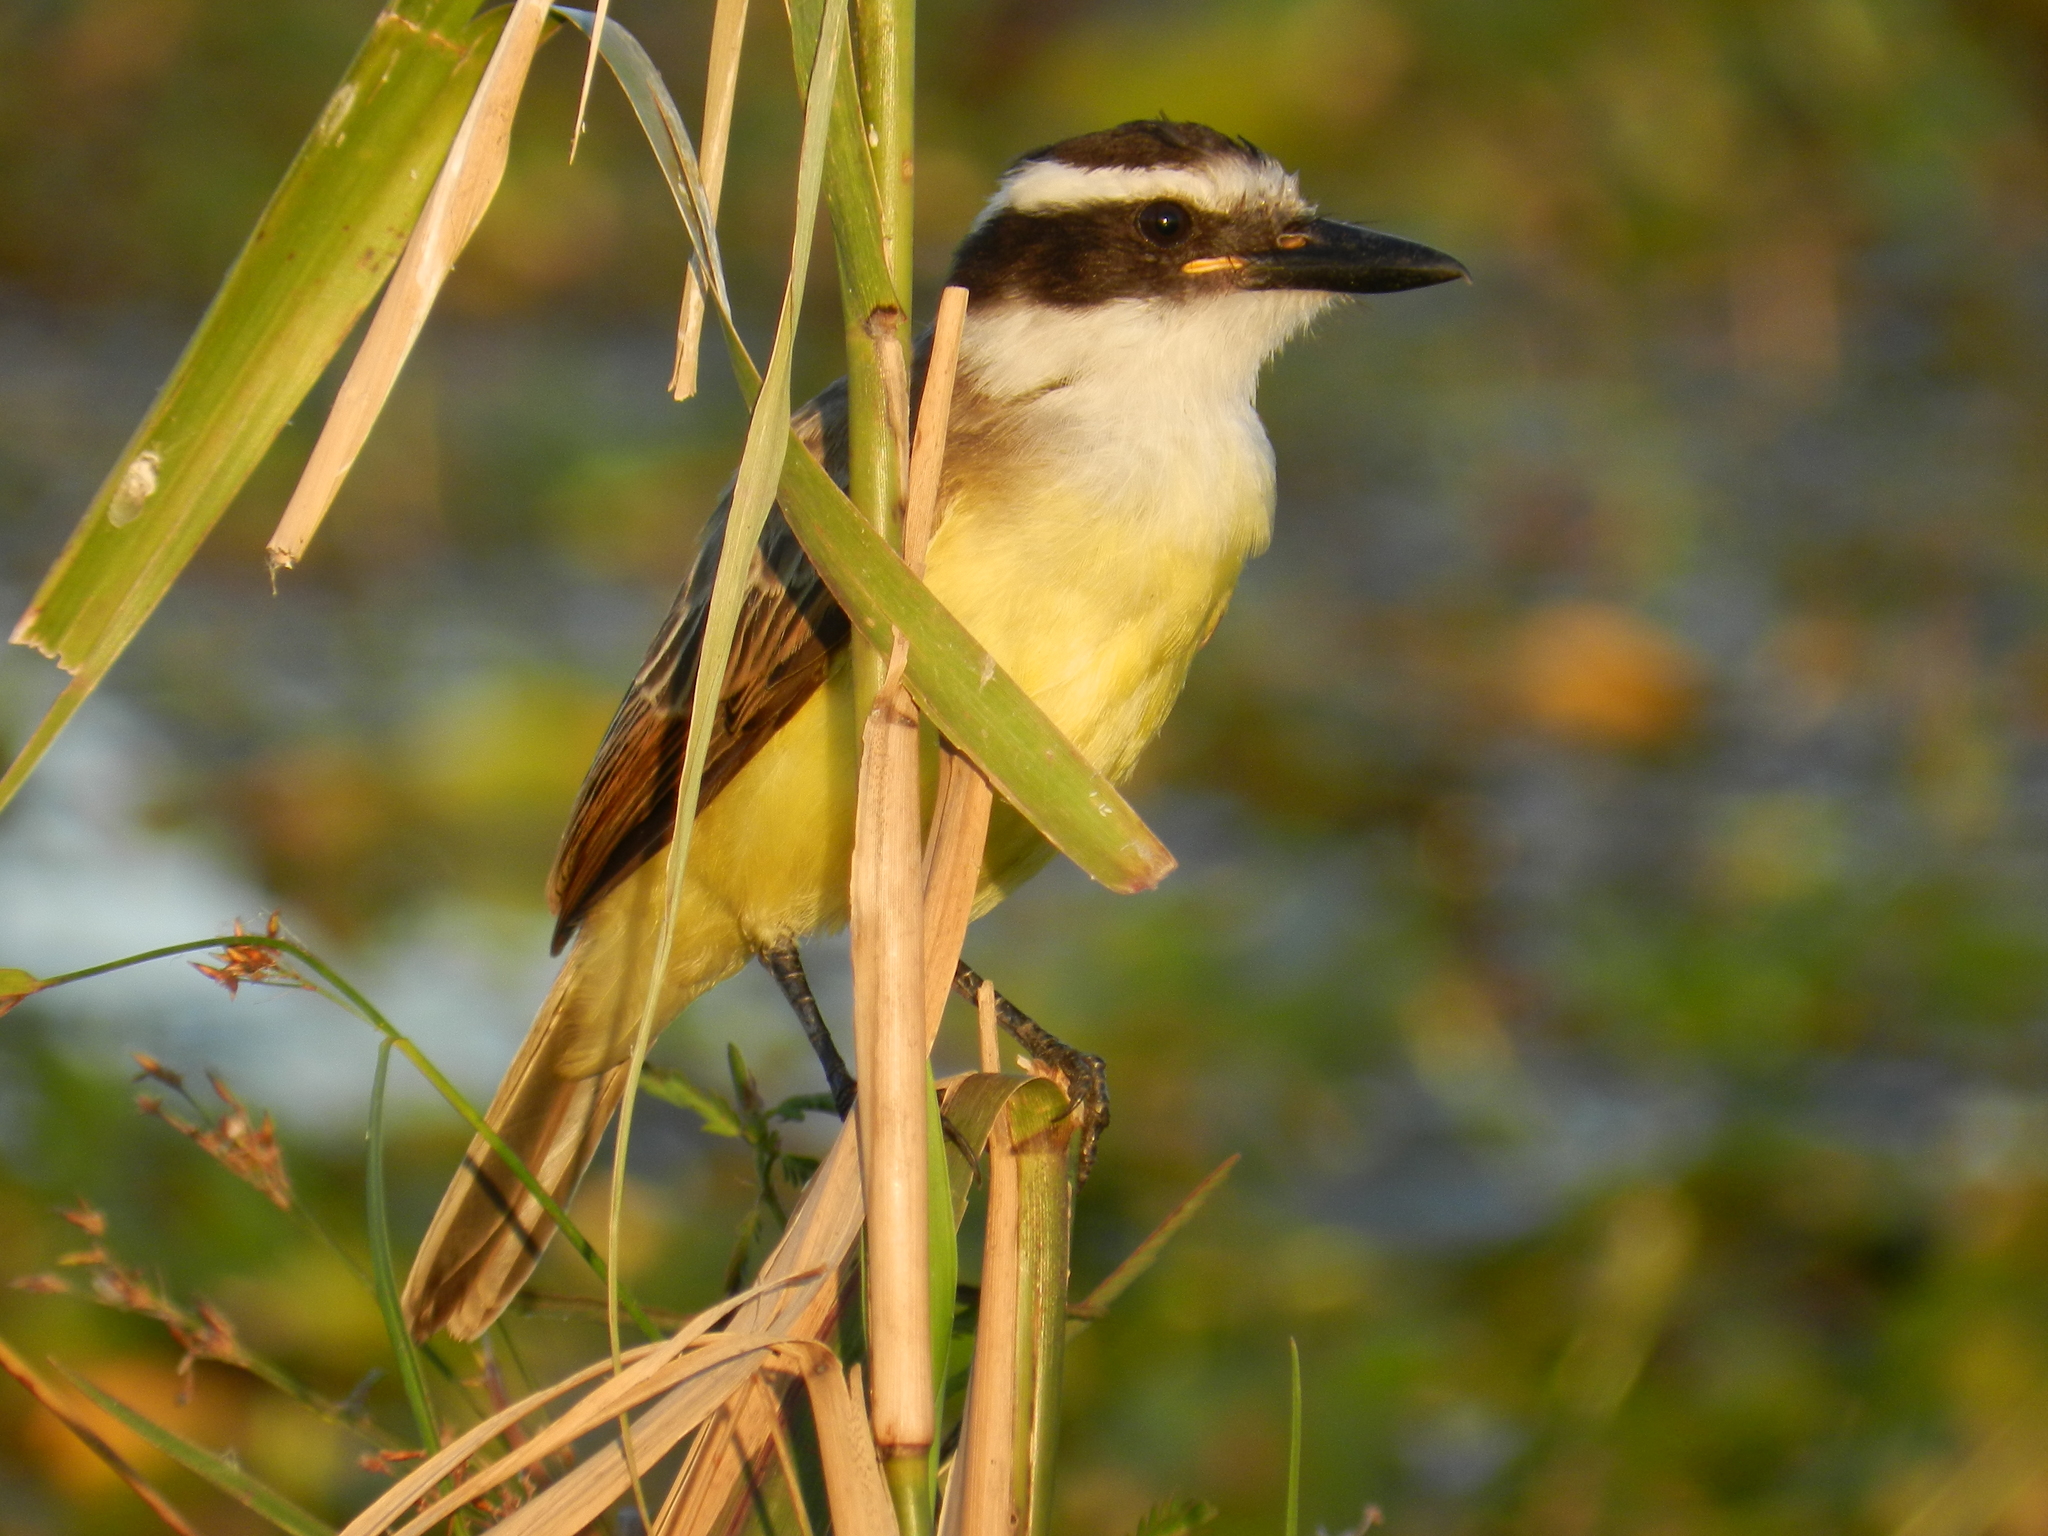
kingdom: Animalia
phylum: Chordata
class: Aves
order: Passeriformes
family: Tyrannidae
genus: Pitangus
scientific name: Pitangus sulphuratus
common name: Great kiskadee
